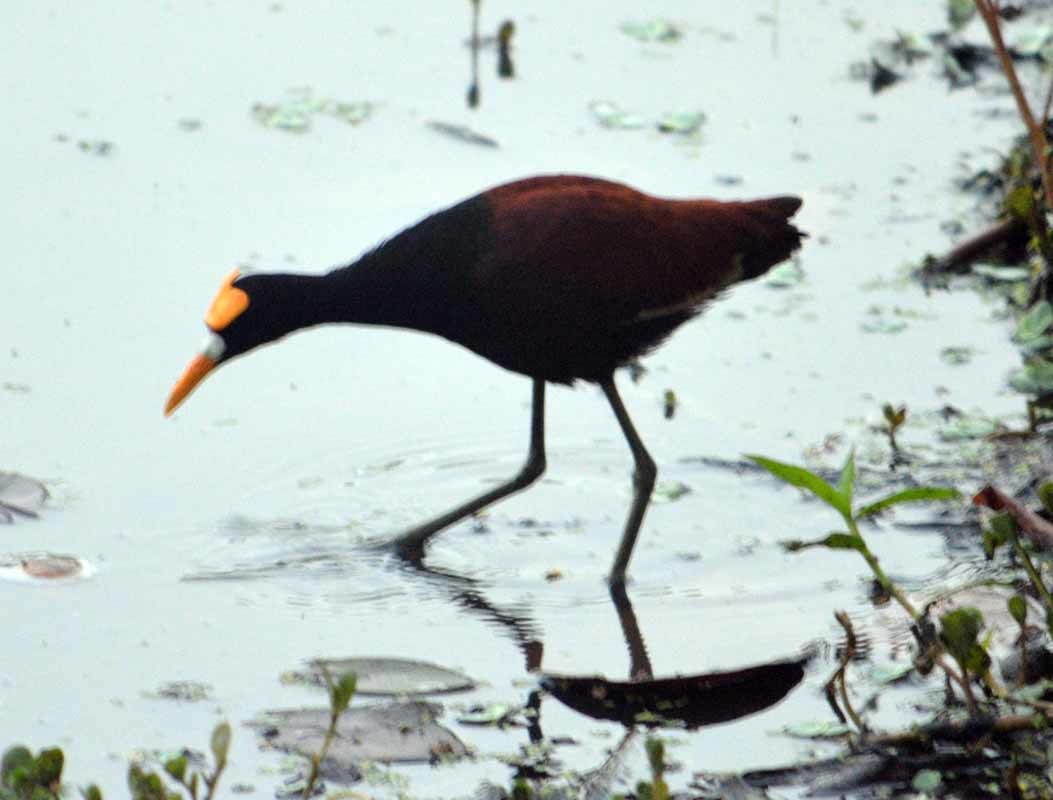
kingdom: Animalia
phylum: Chordata
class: Aves
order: Charadriiformes
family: Jacanidae
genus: Jacana
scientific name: Jacana spinosa
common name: Northern jacana
